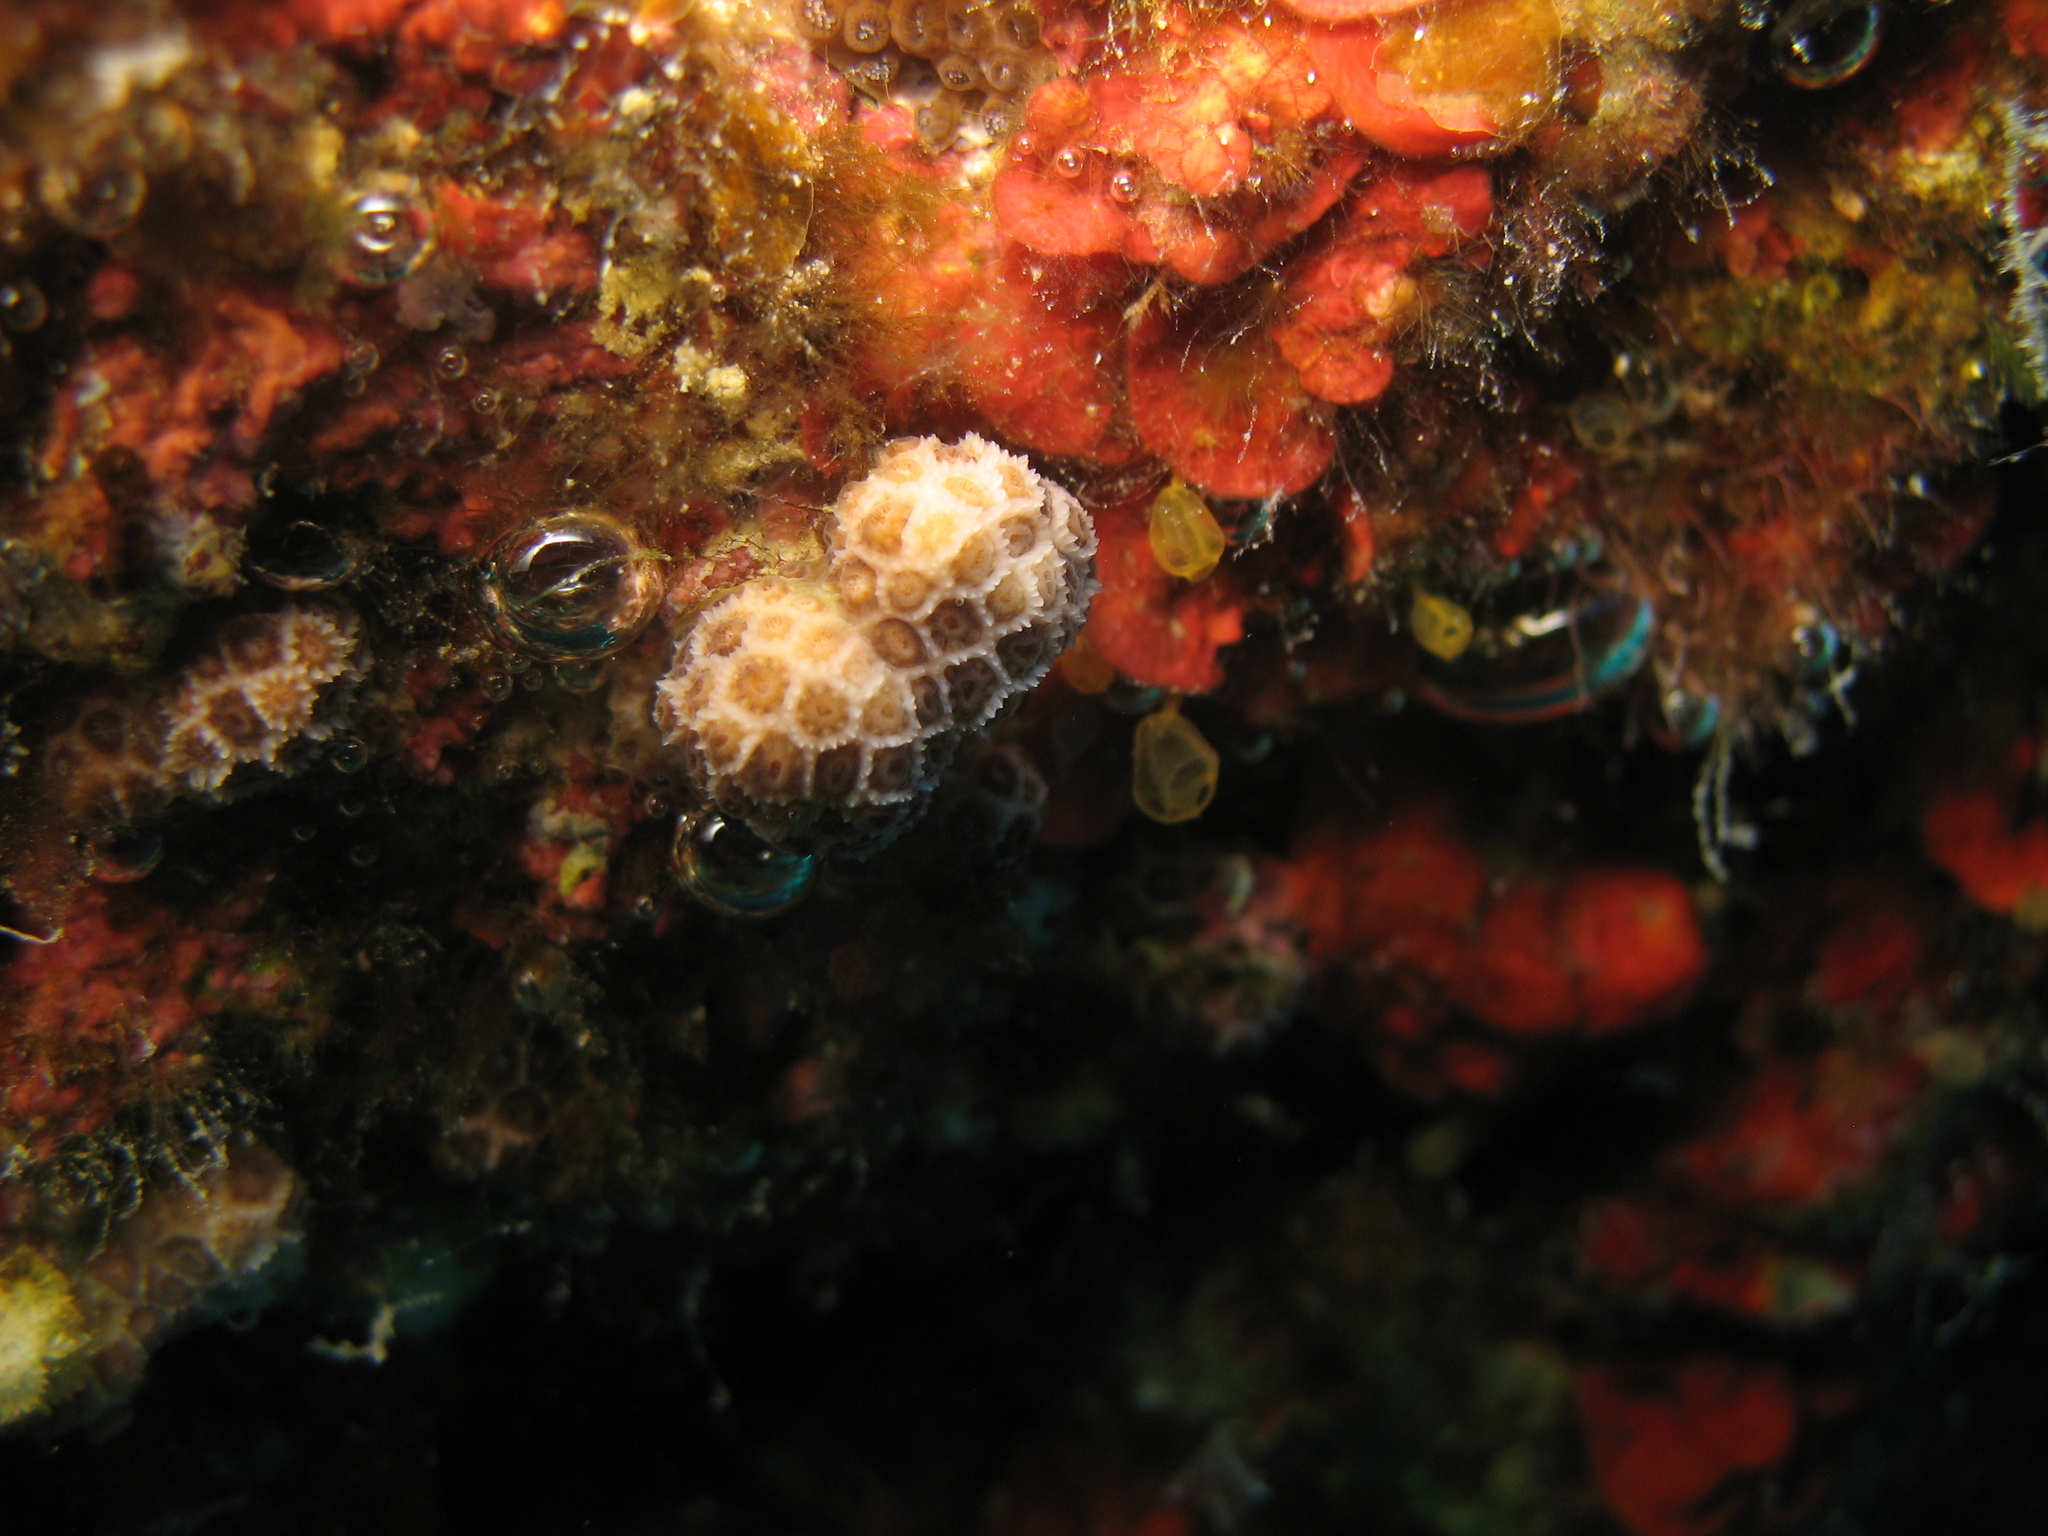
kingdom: Animalia
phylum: Cnidaria
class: Anthozoa
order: Scleractinia
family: Pocilloporidae
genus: Madracis
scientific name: Madracis pharensis
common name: Star coral
